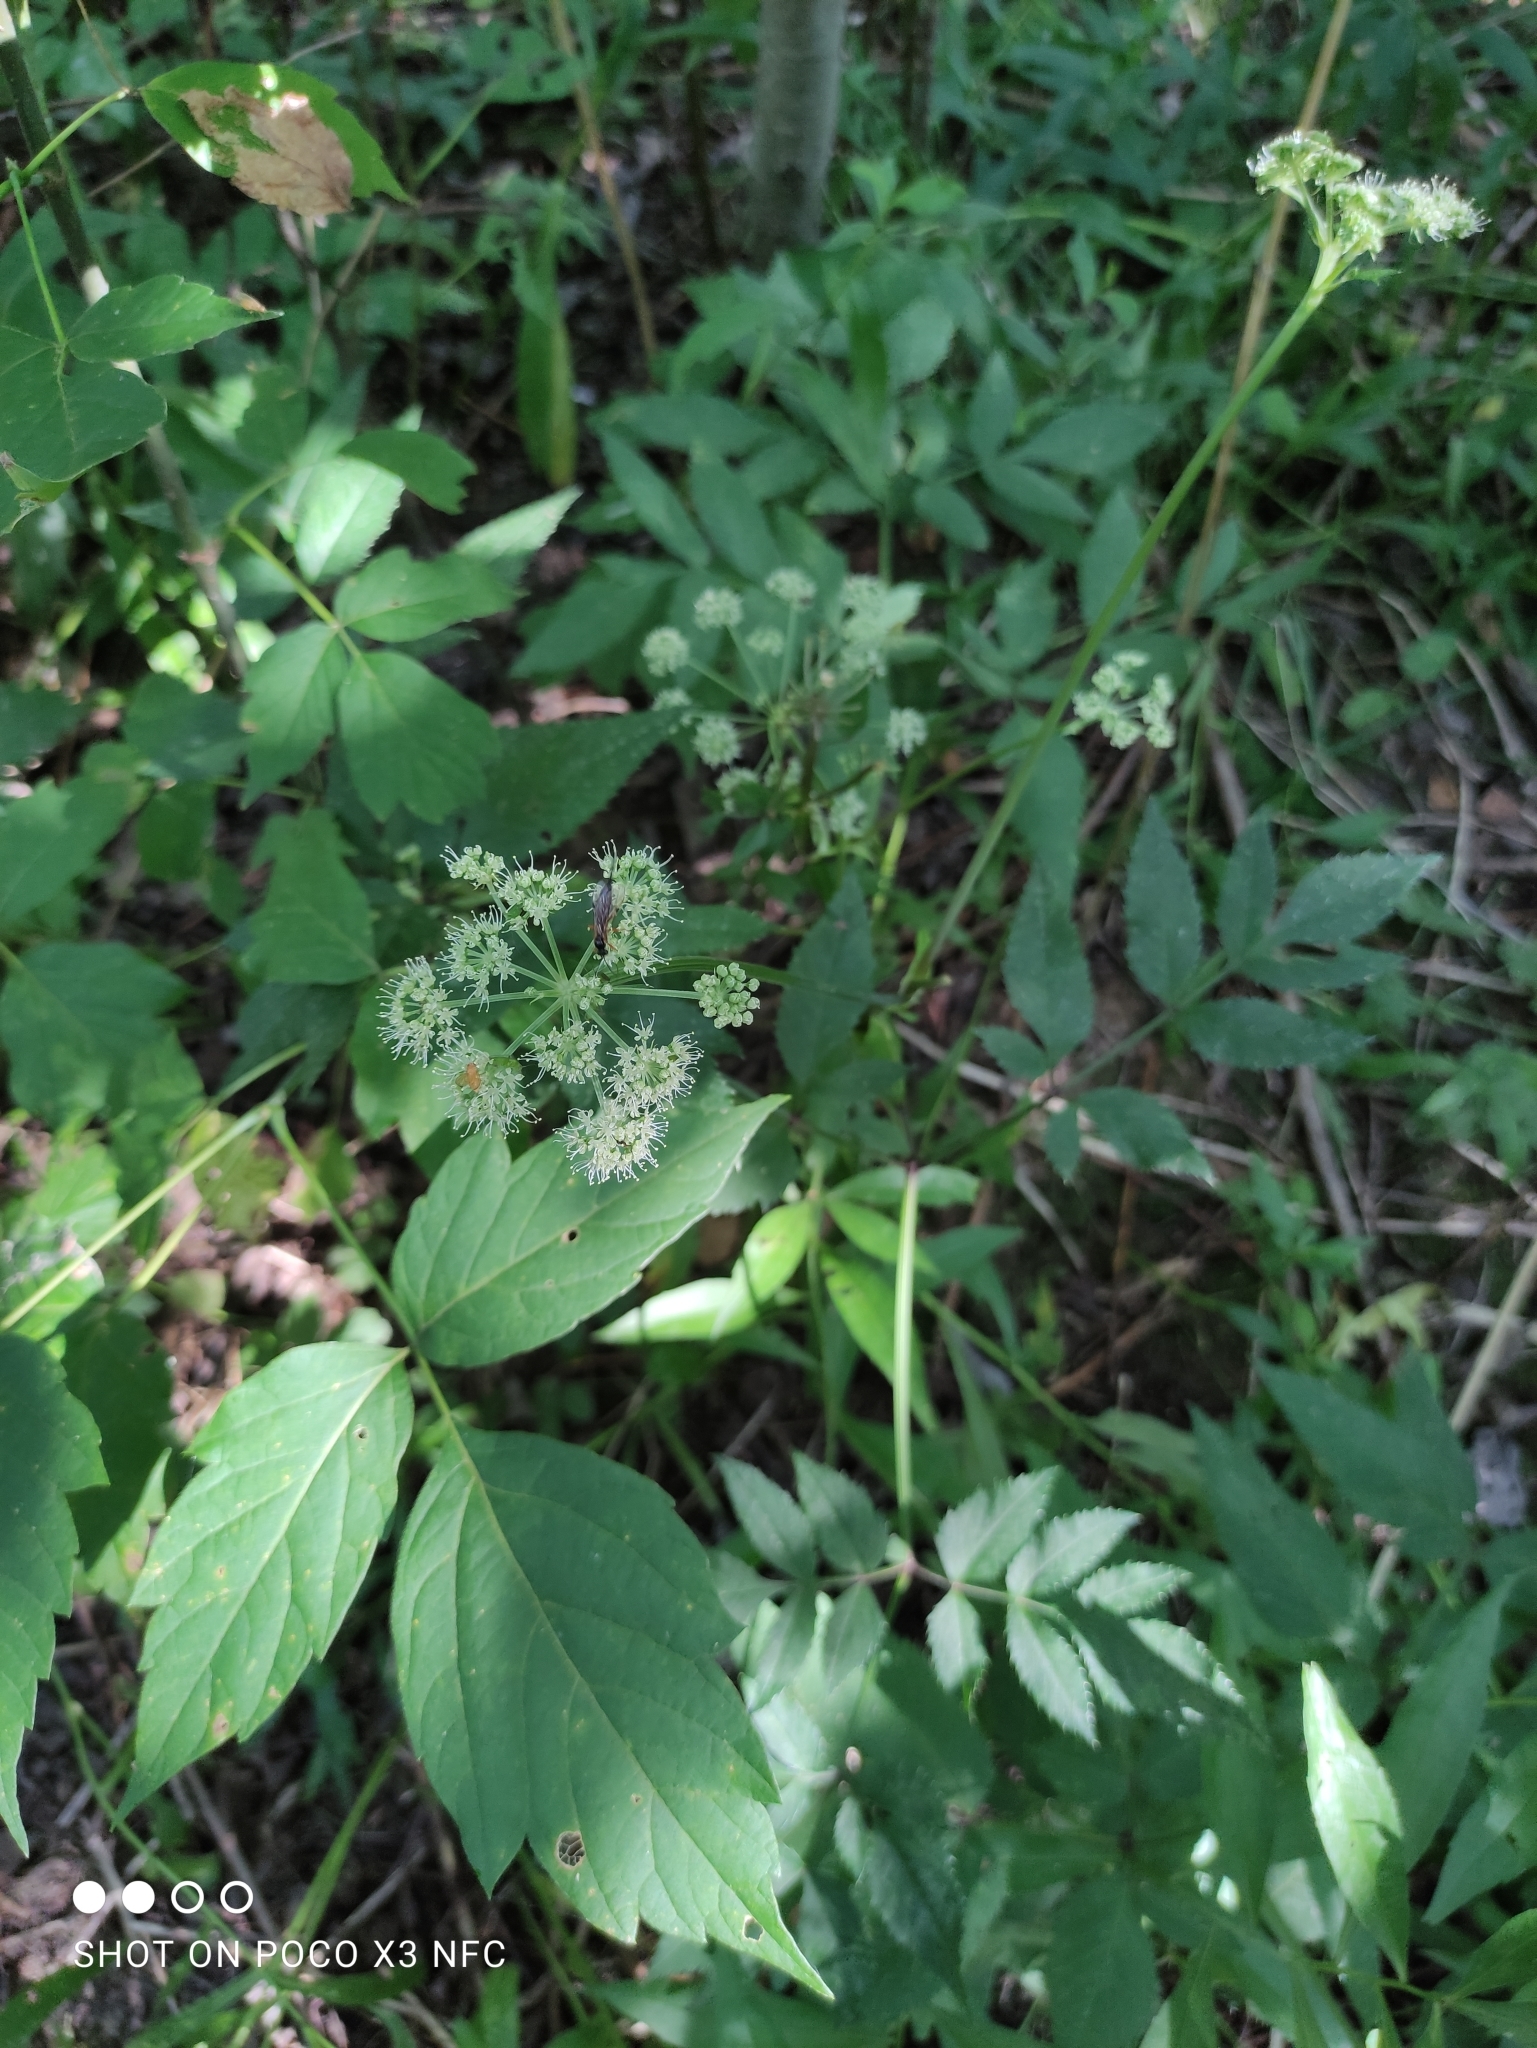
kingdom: Plantae
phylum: Tracheophyta
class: Magnoliopsida
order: Apiales
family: Apiaceae
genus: Angelica
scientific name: Angelica sylvestris
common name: Wild angelica
